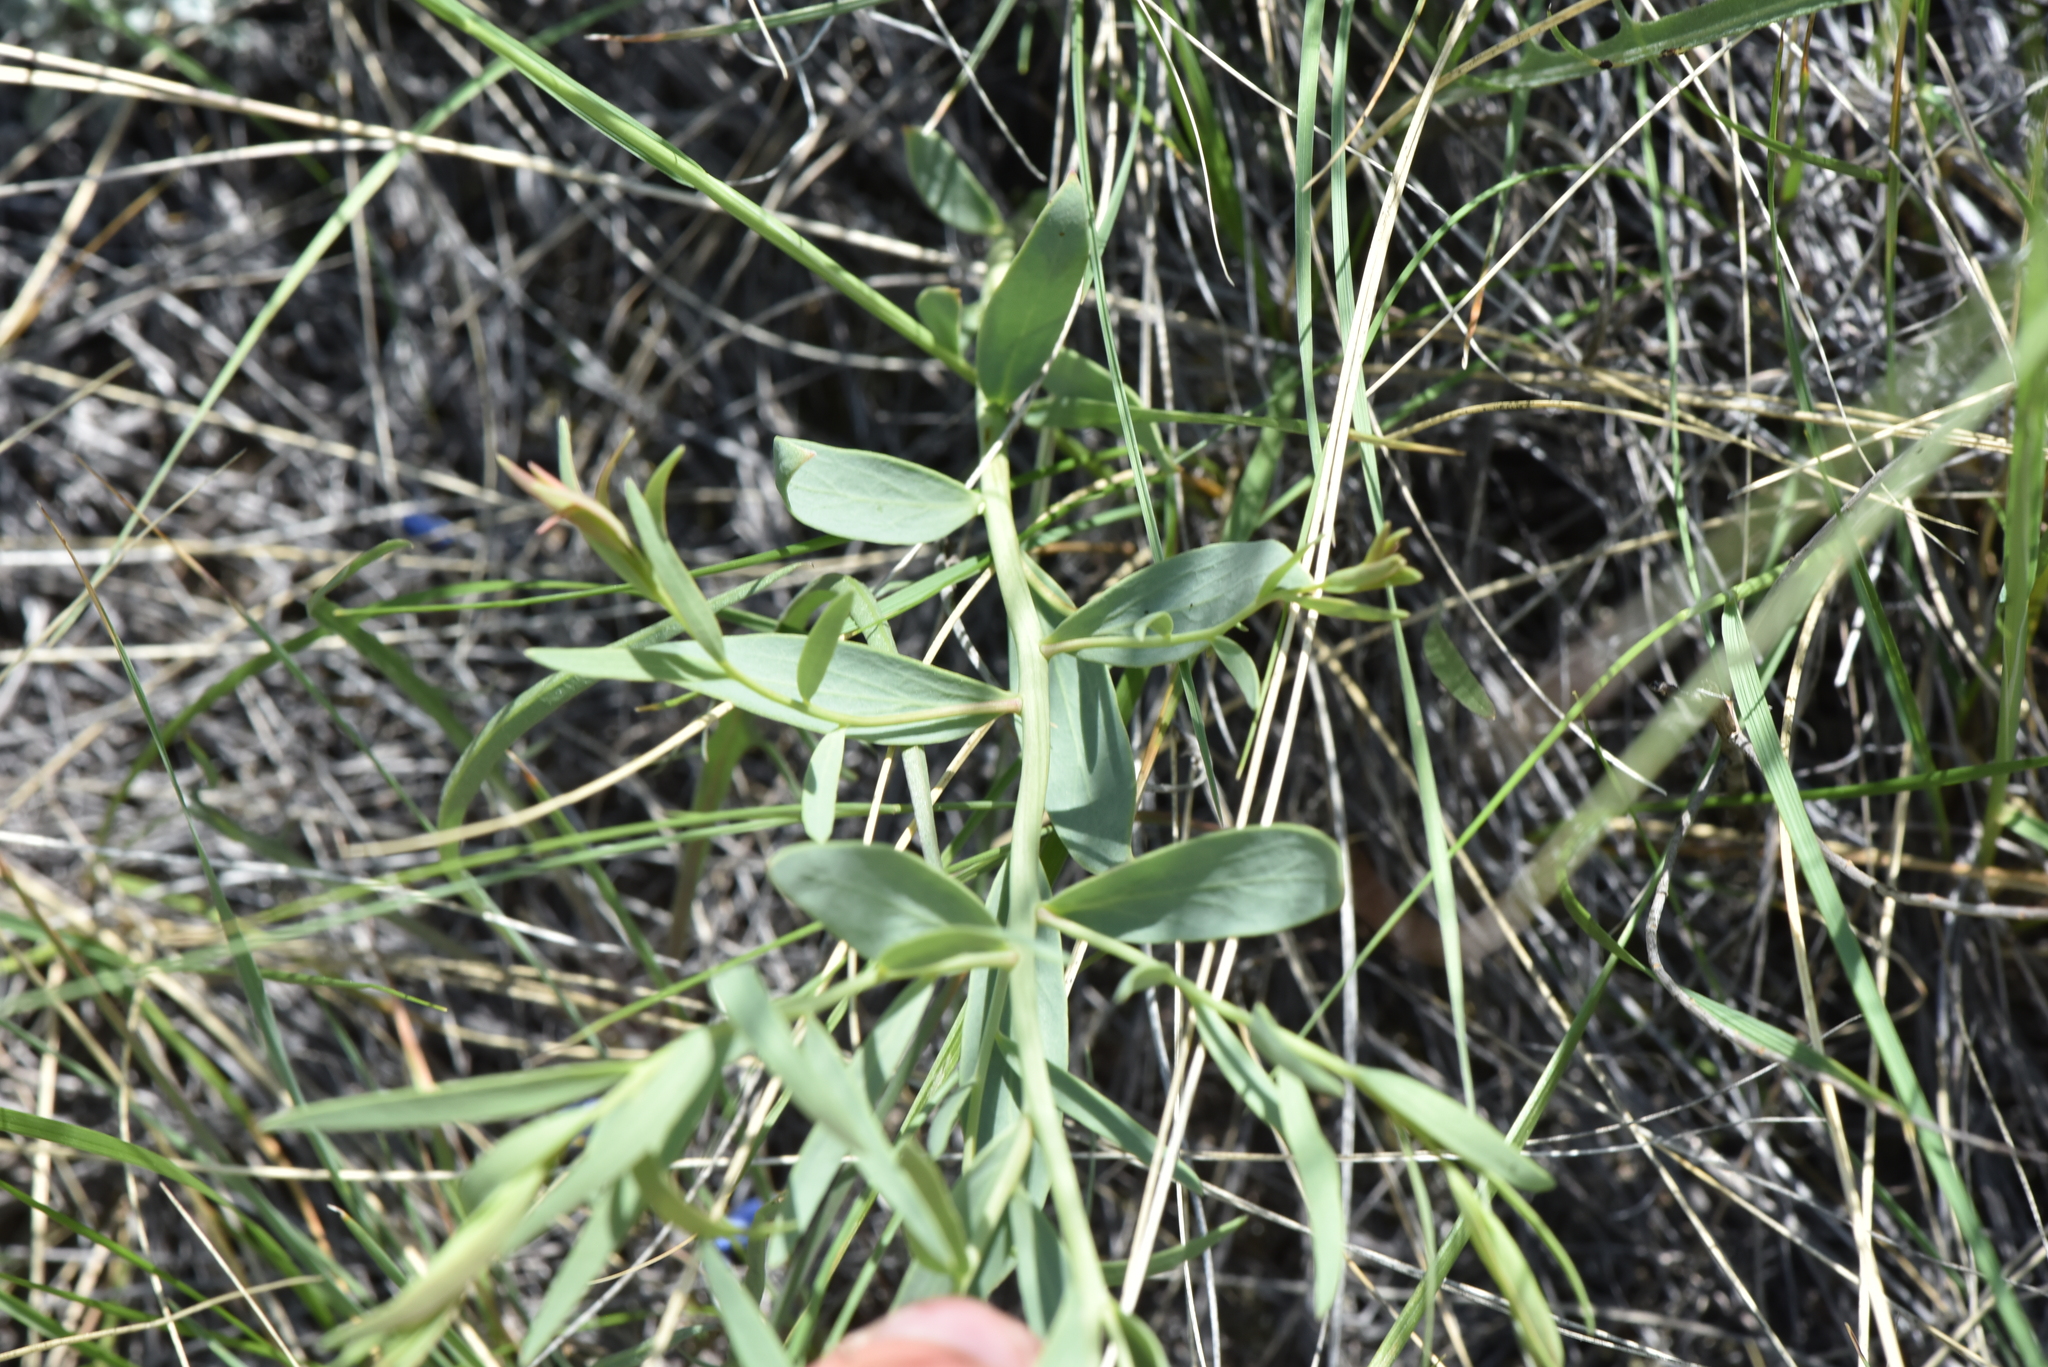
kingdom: Plantae
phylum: Tracheophyta
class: Magnoliopsida
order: Santalales
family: Comandraceae
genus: Comandra
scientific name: Comandra umbellata
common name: Bastard toadflax
